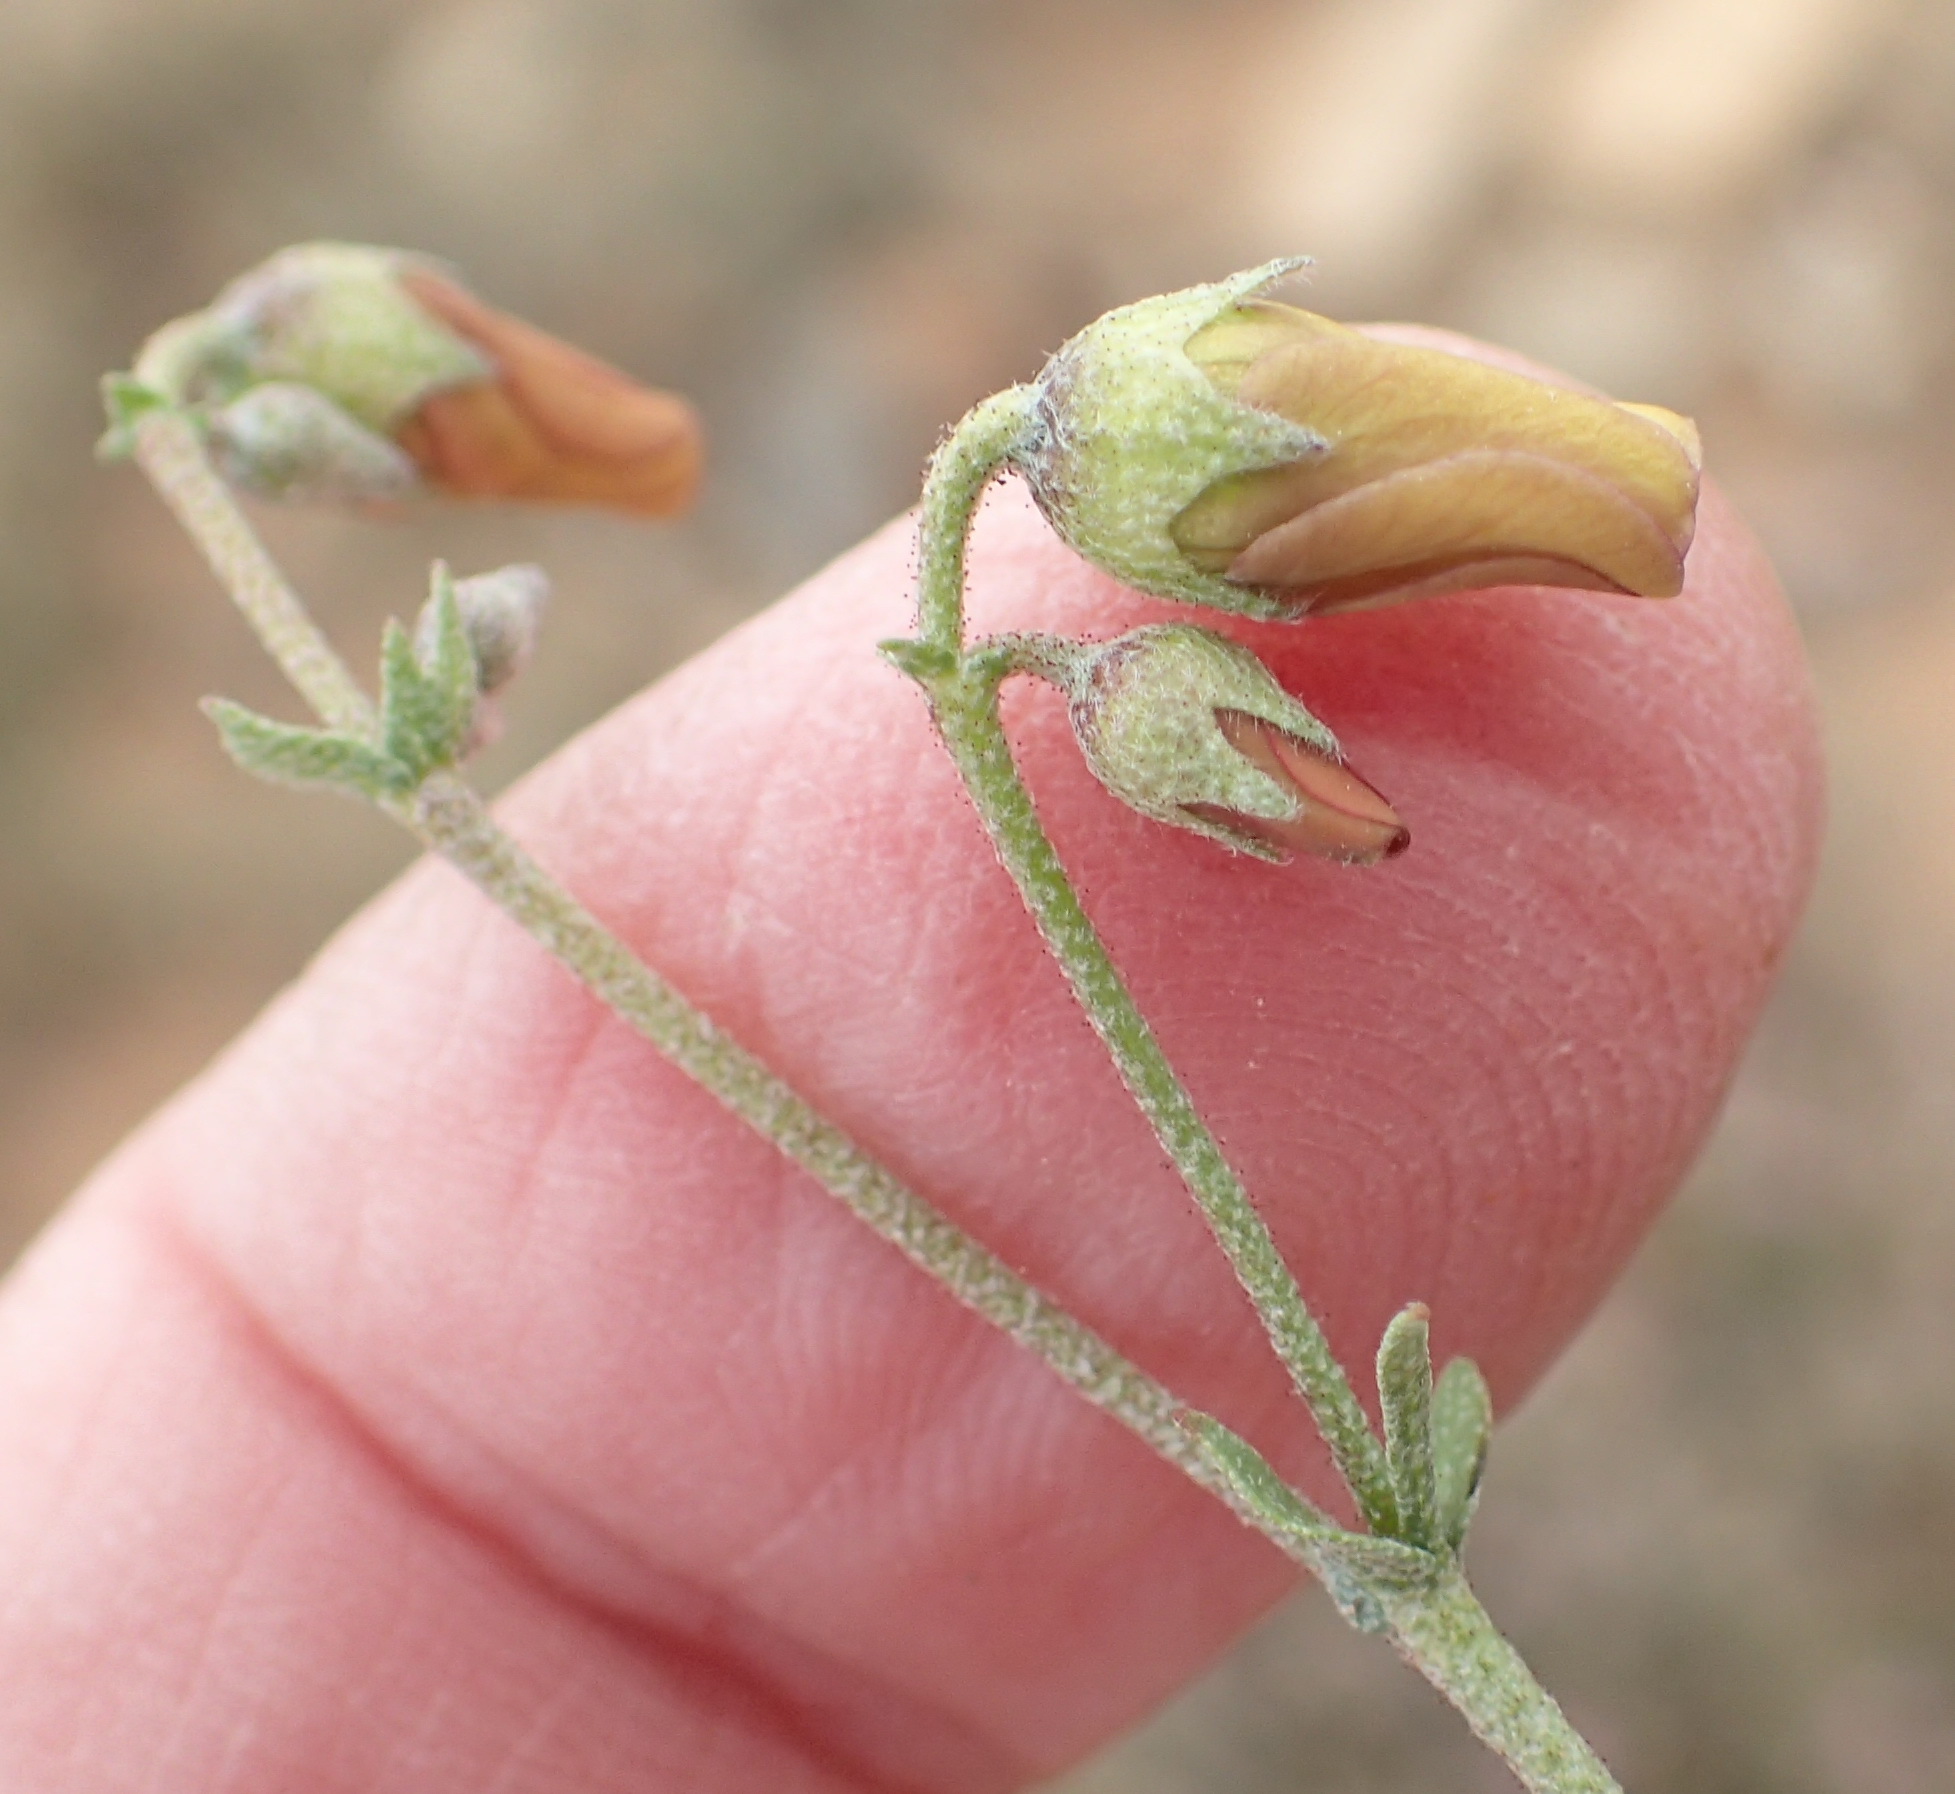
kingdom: Plantae
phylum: Tracheophyta
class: Magnoliopsida
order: Malvales
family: Malvaceae
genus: Hermannia
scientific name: Hermannia pulverata
